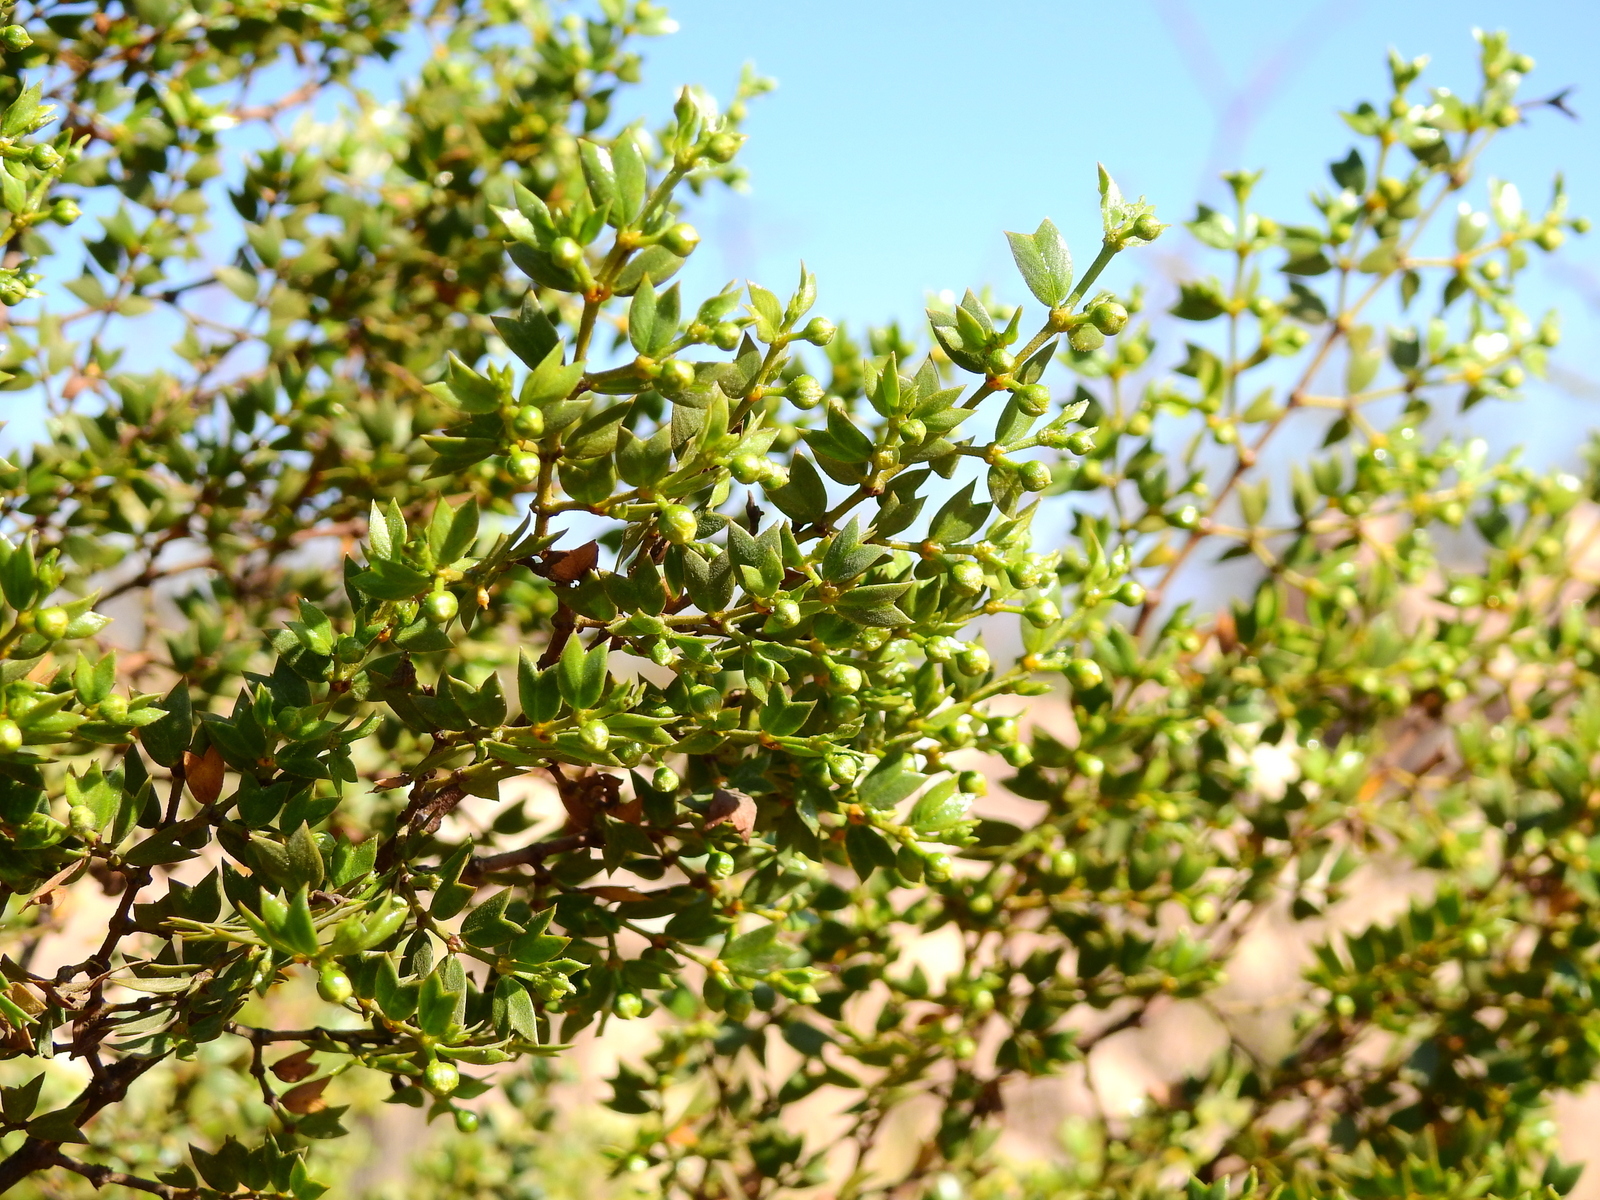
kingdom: Plantae
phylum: Tracheophyta
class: Magnoliopsida
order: Zygophyllales
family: Zygophyllaceae
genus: Larrea
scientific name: Larrea cuneifolia
